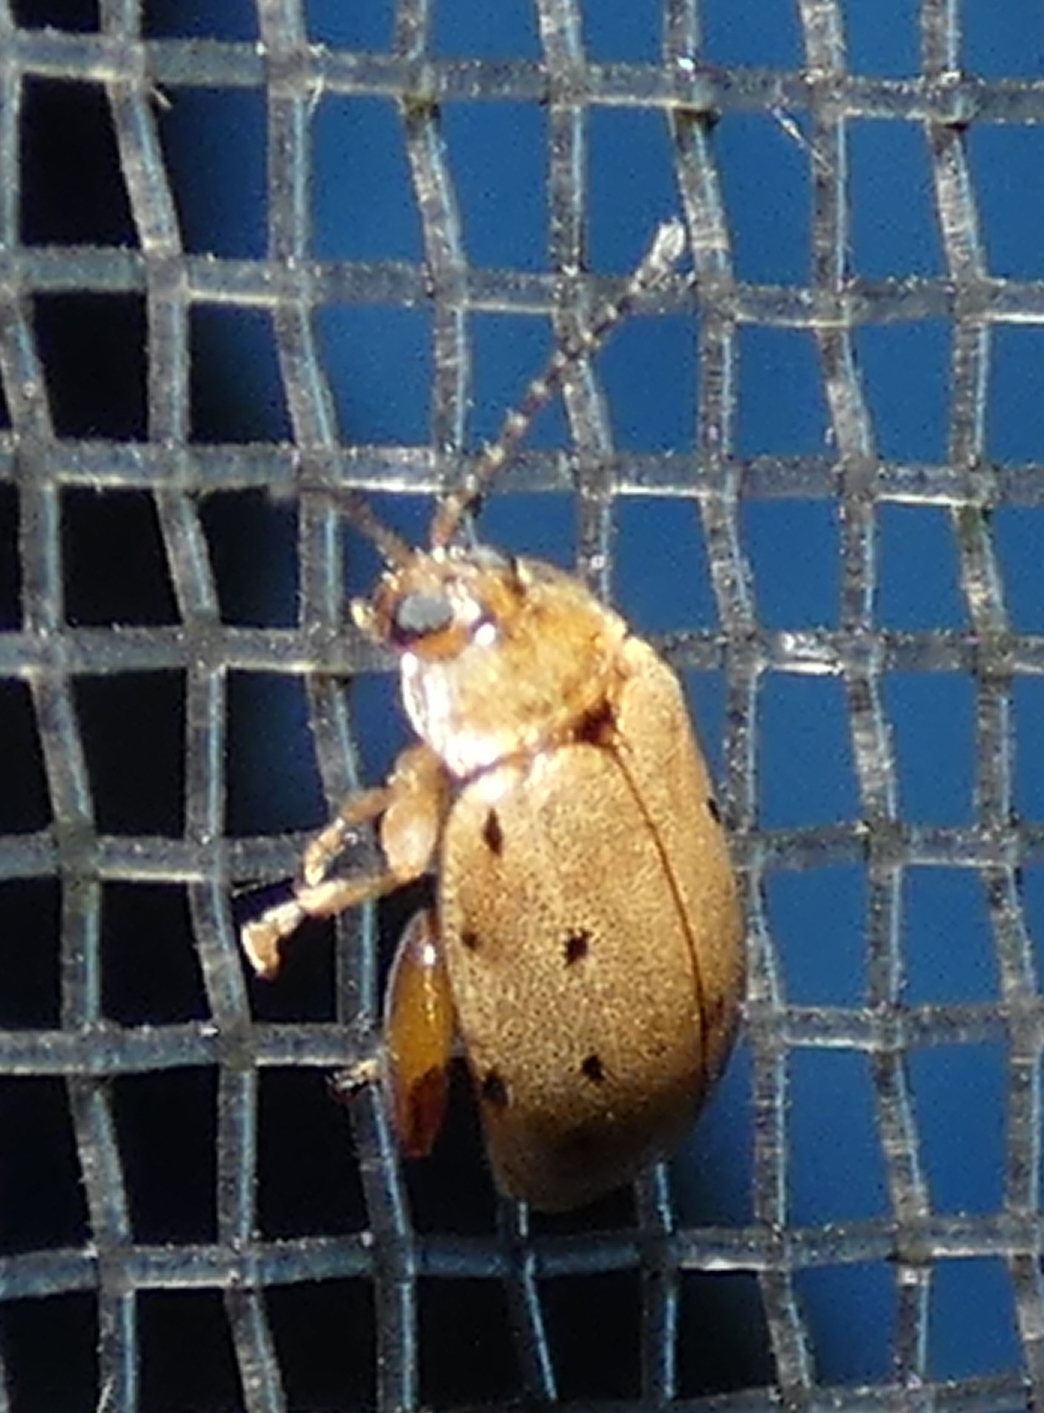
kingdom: Animalia
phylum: Arthropoda
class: Insecta
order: Coleoptera
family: Chrysomelidae
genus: Alagoasa
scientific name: Alagoasa
